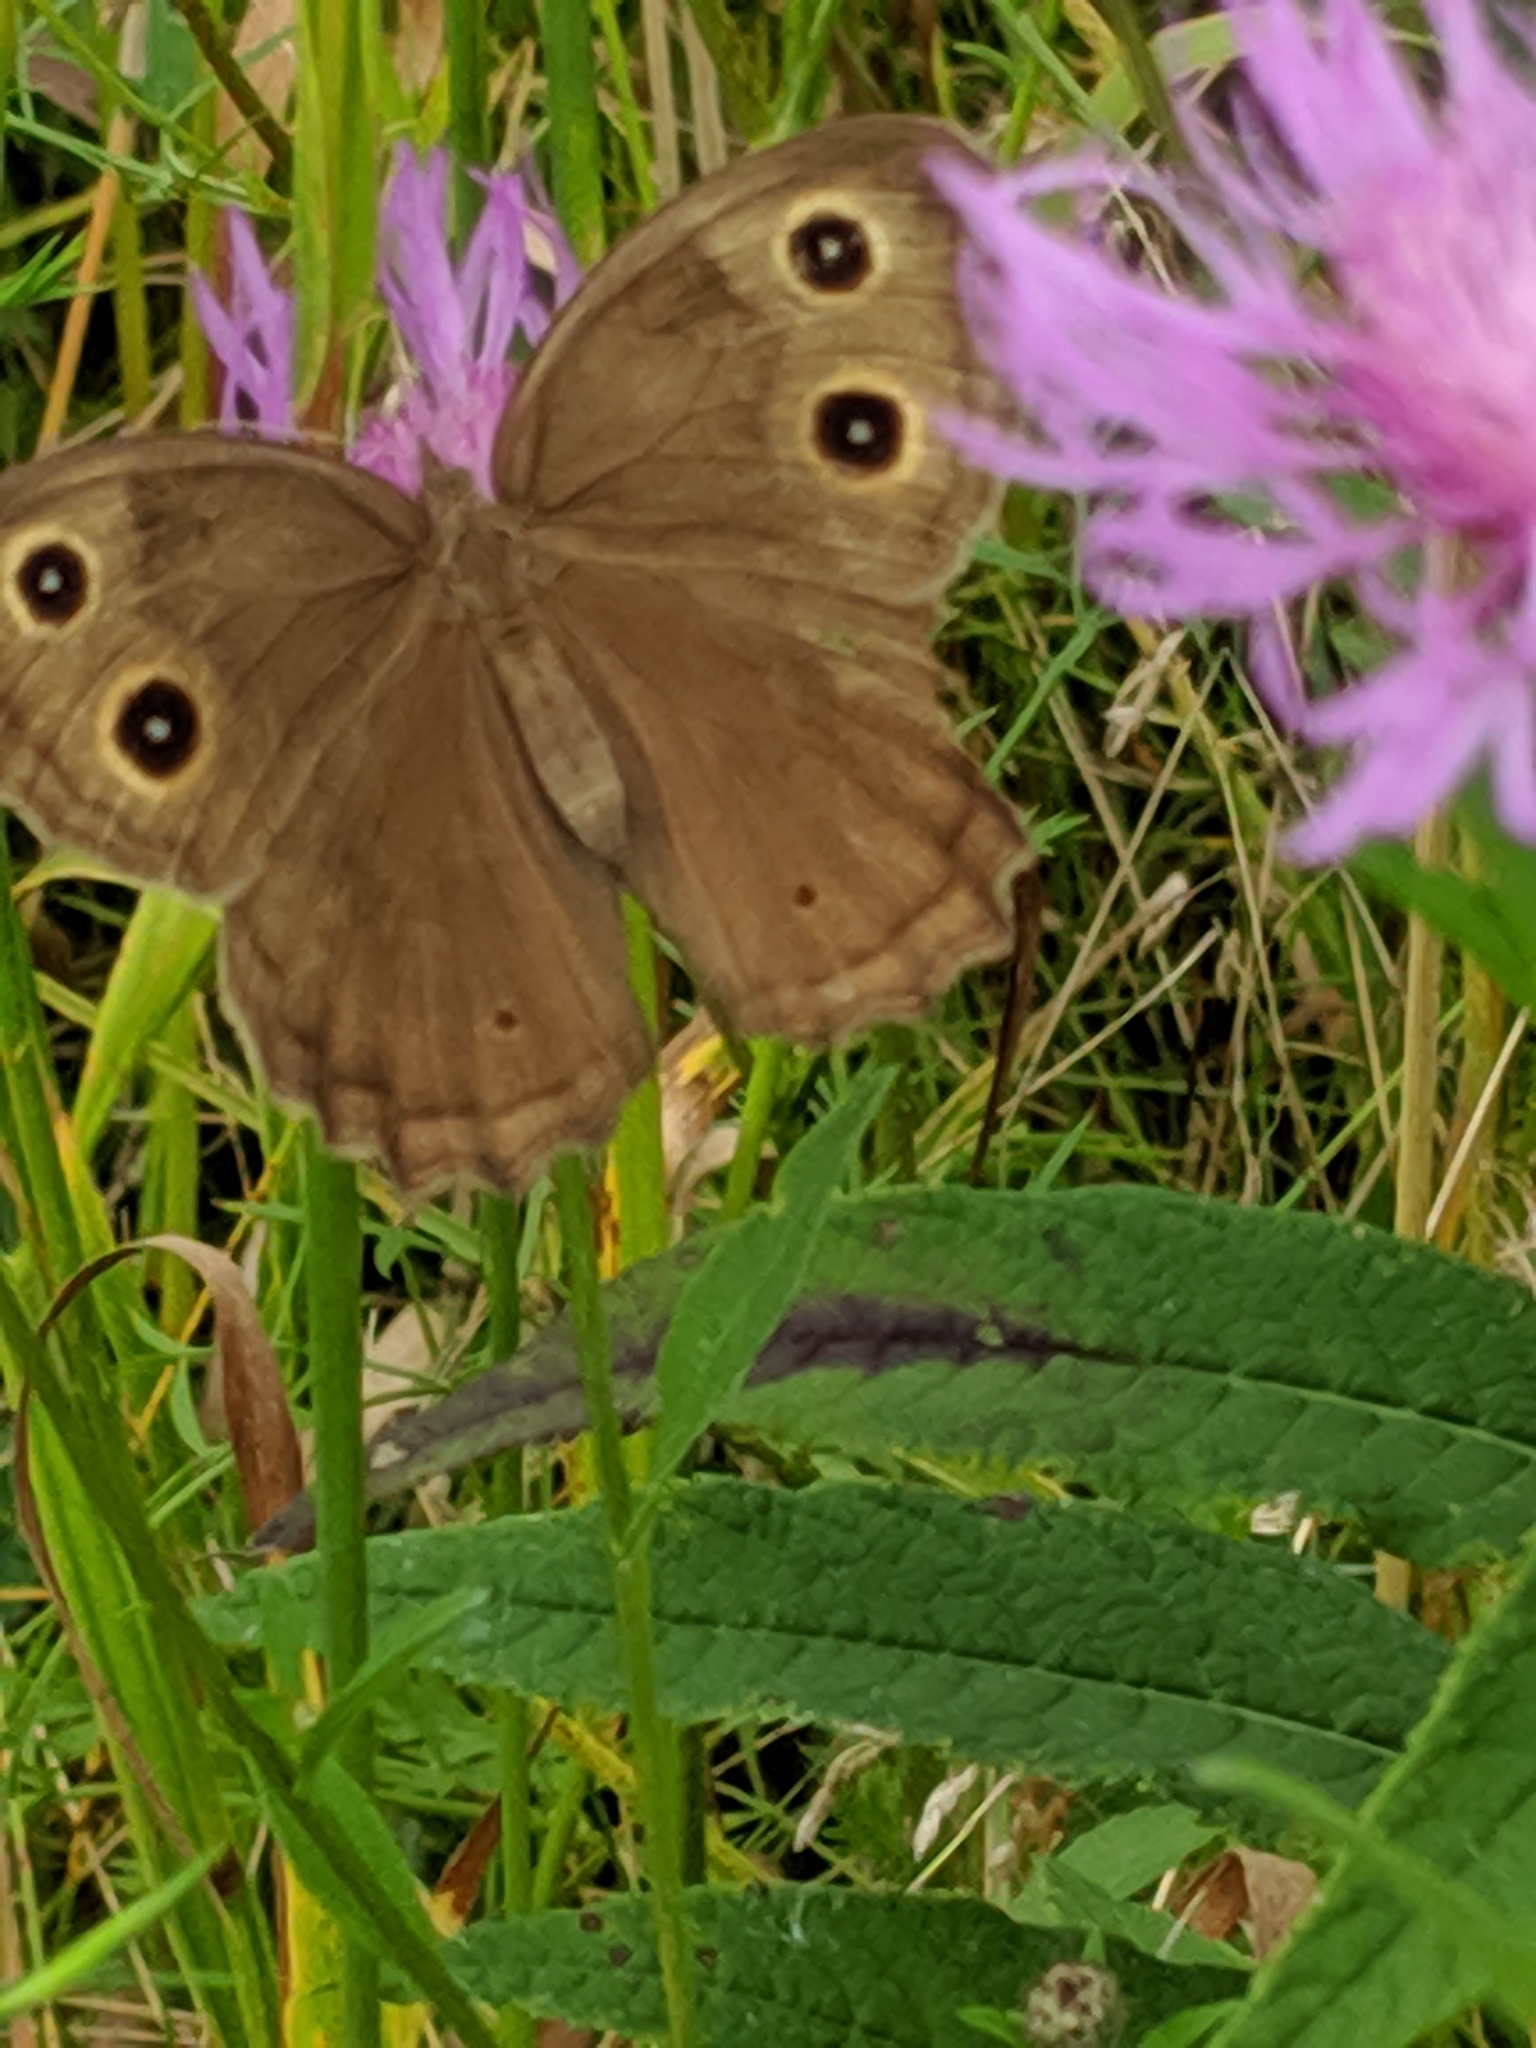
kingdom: Animalia
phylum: Arthropoda
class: Insecta
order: Lepidoptera
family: Nymphalidae
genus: Cercyonis
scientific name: Cercyonis pegala
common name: Common wood-nymph
